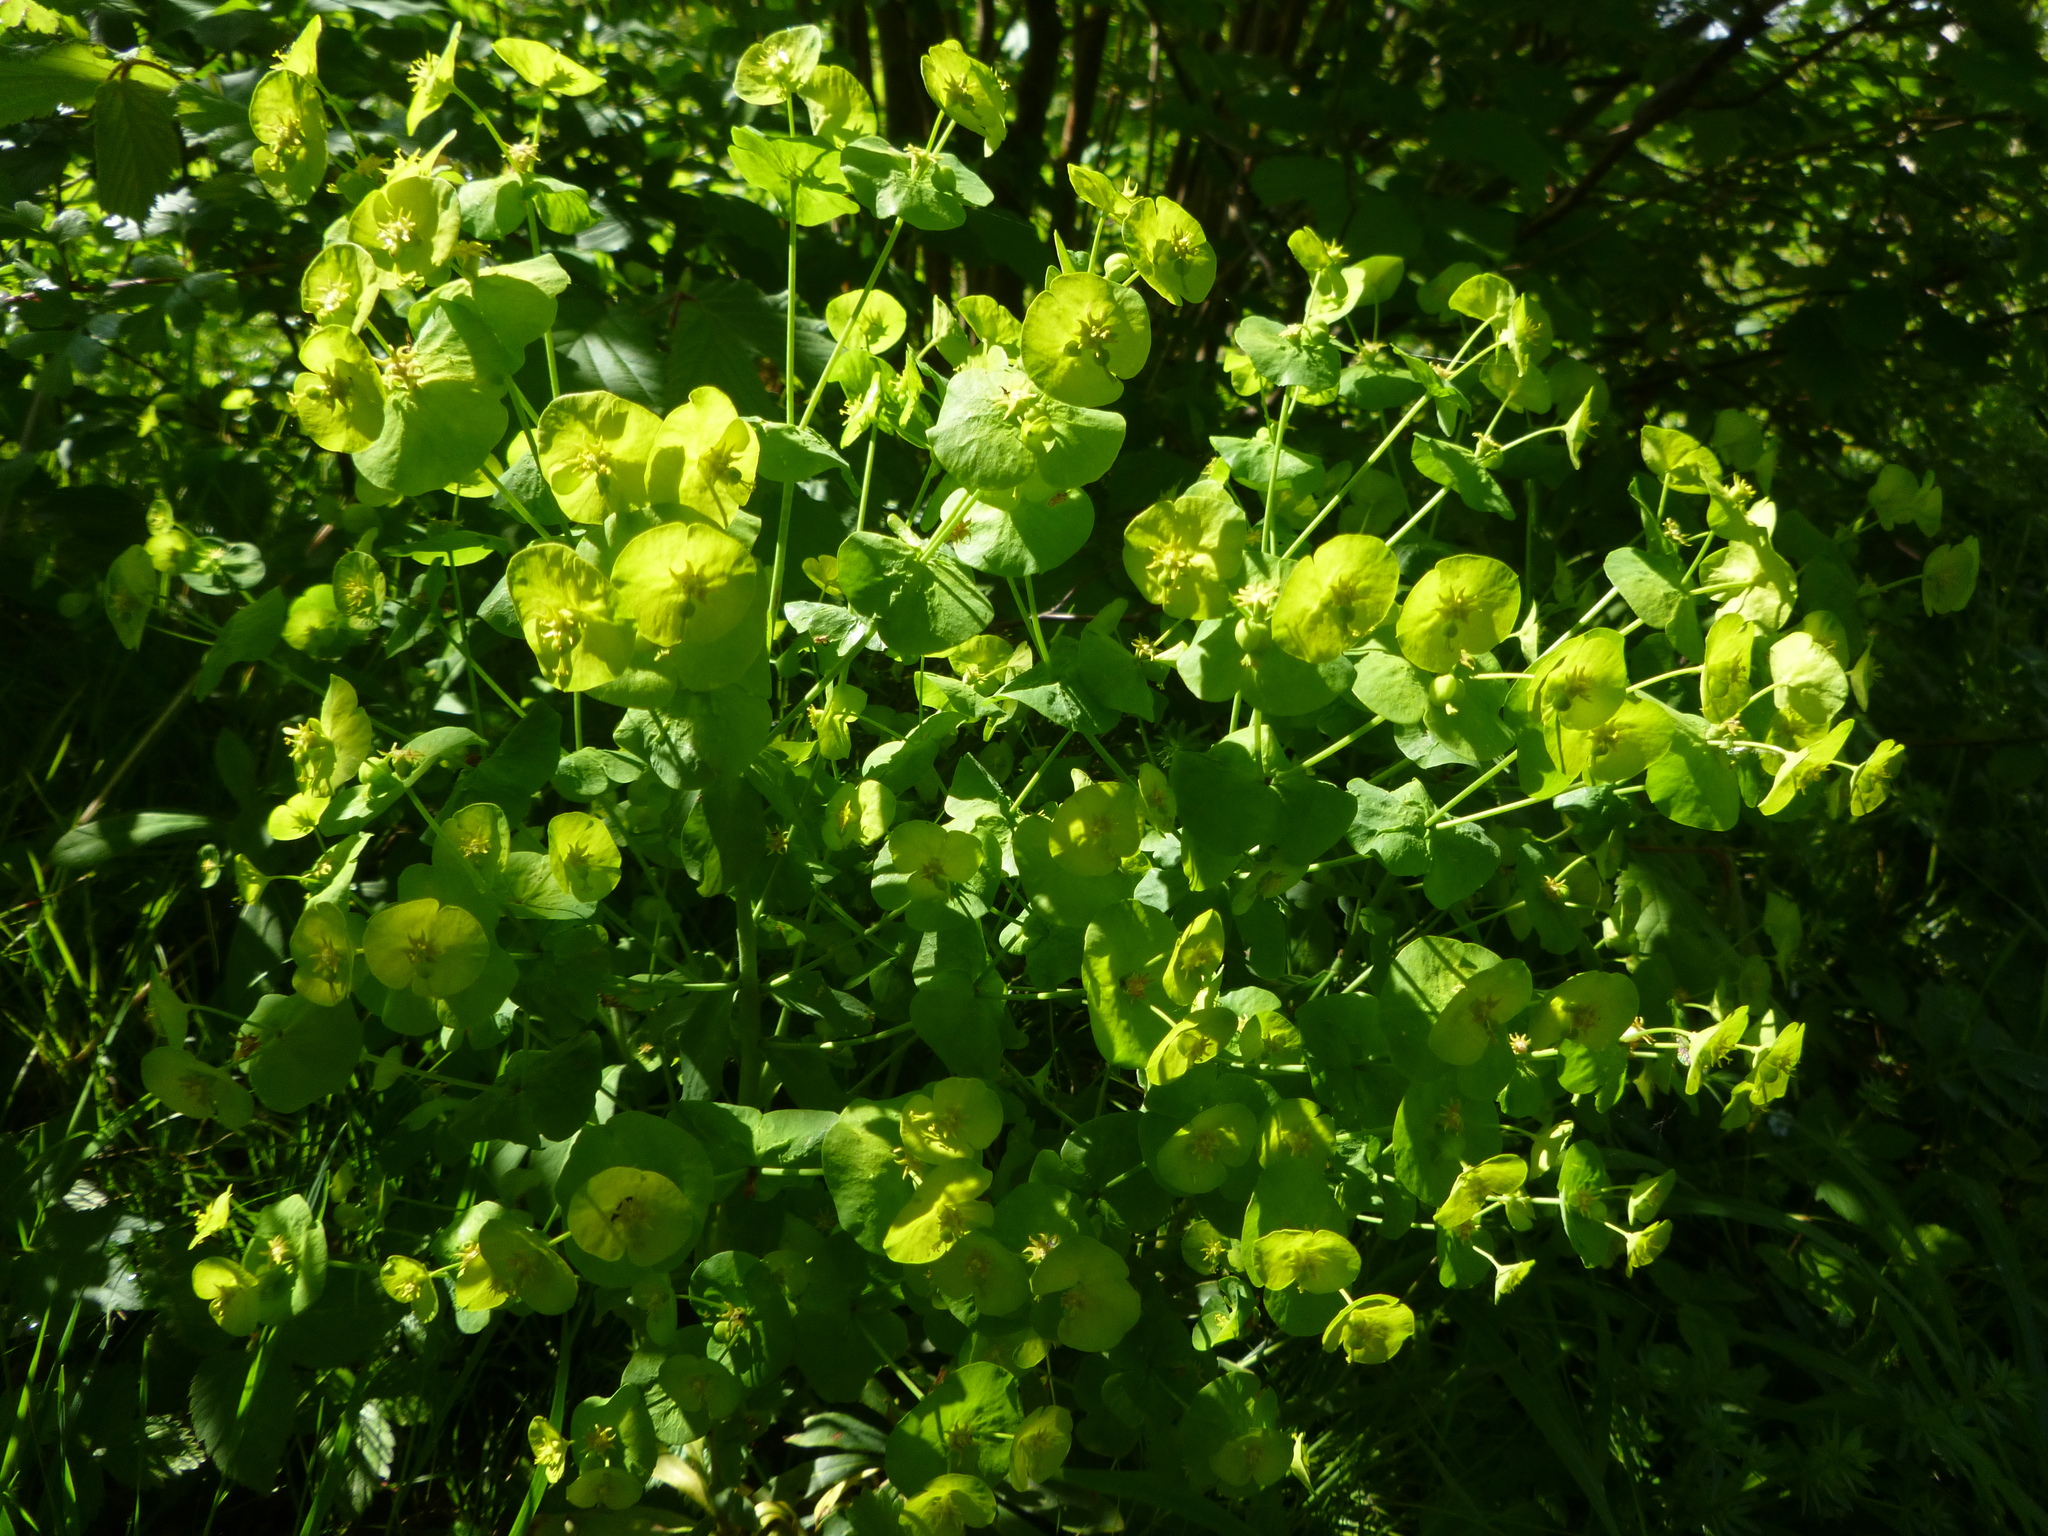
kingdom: Plantae
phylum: Tracheophyta
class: Magnoliopsida
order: Malpighiales
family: Euphorbiaceae
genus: Euphorbia
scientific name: Euphorbia amygdaloides
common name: Wood spurge
